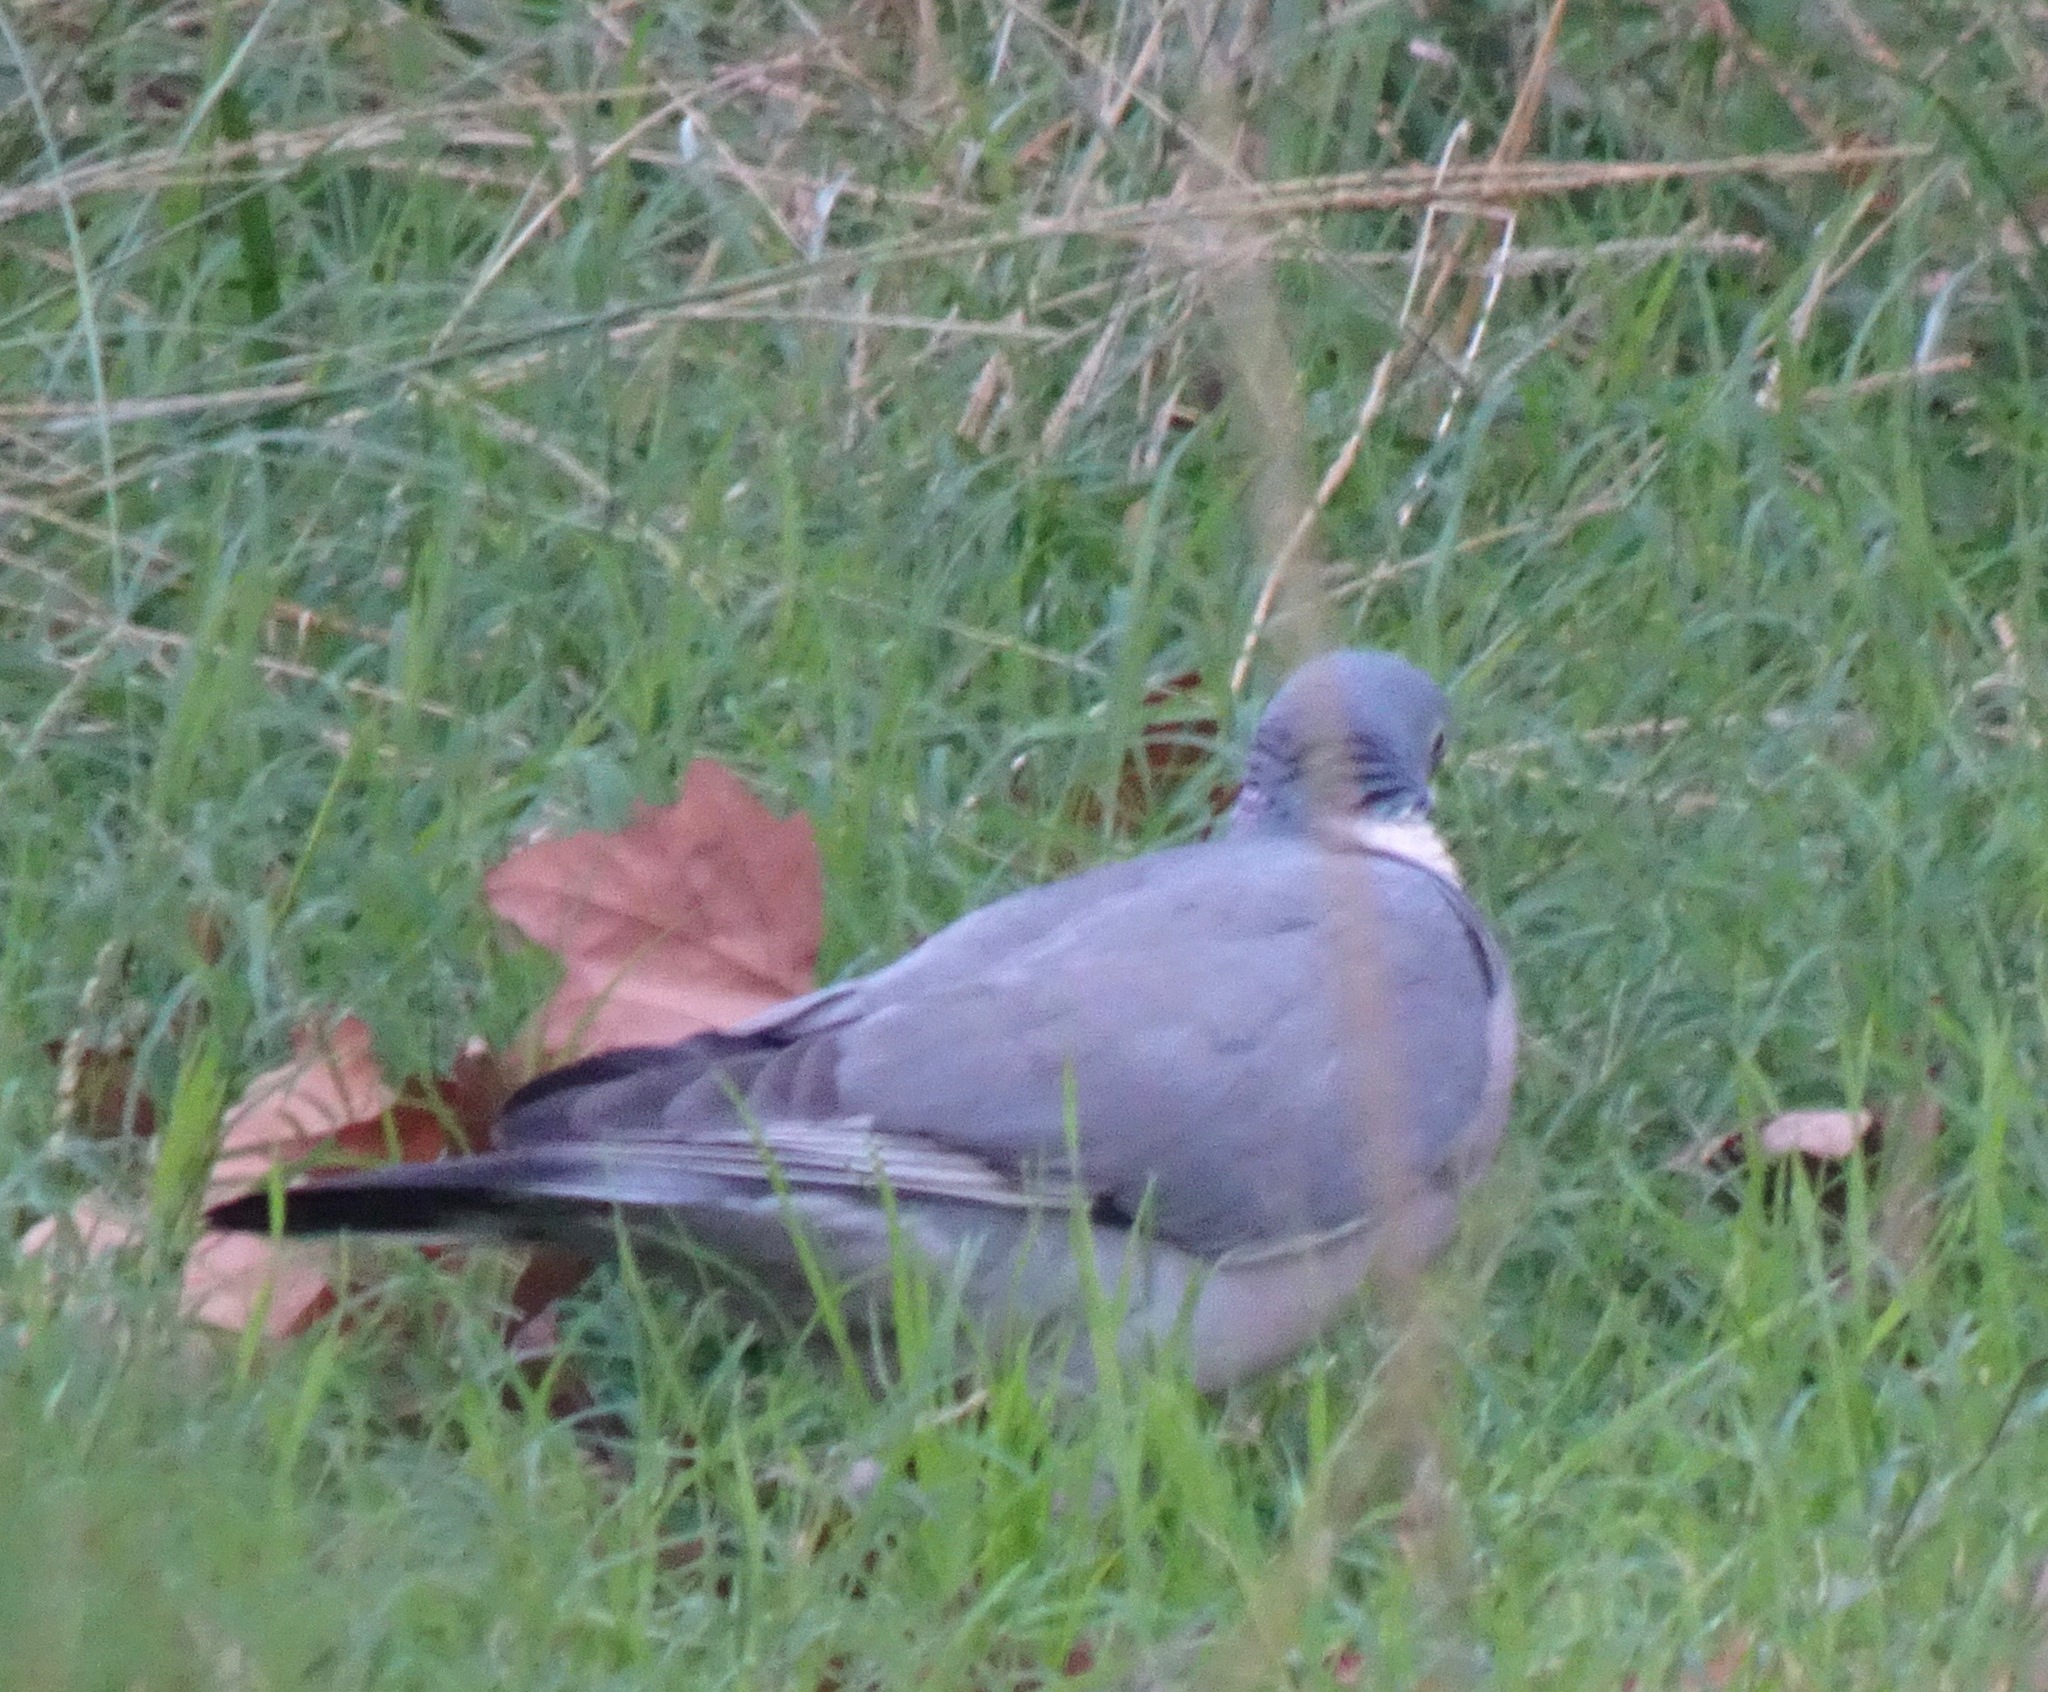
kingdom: Animalia
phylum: Chordata
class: Aves
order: Columbiformes
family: Columbidae
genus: Columba
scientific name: Columba palumbus
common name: Common wood pigeon
